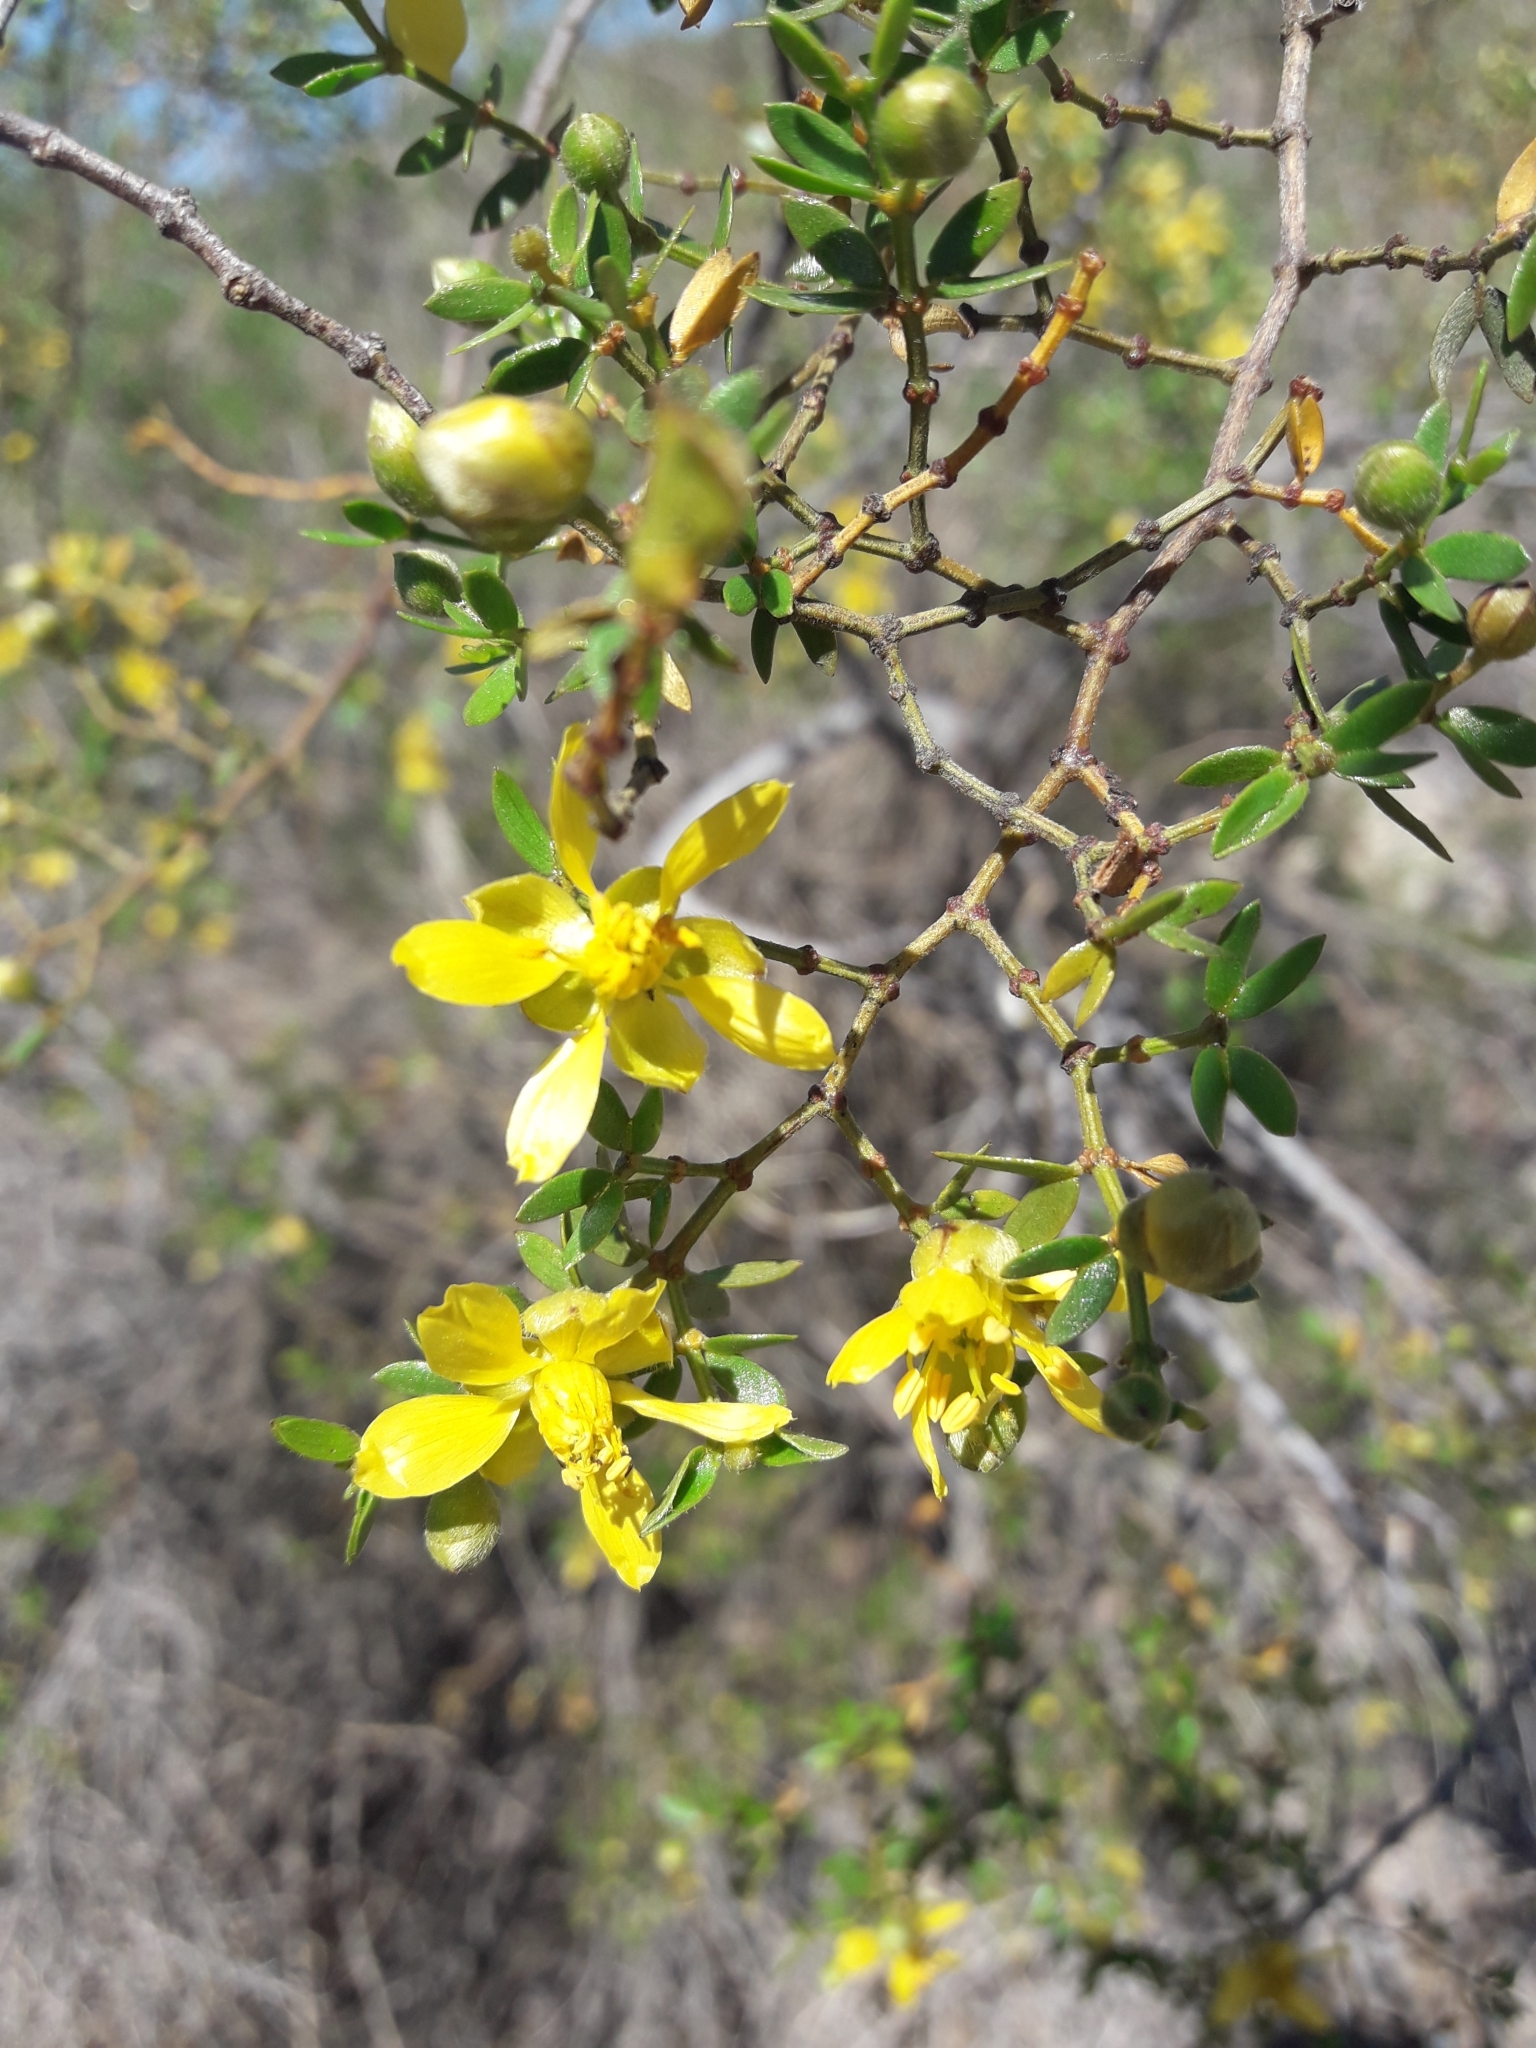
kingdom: Plantae
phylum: Tracheophyta
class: Magnoliopsida
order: Zygophyllales
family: Zygophyllaceae
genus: Larrea
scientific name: Larrea divaricata
